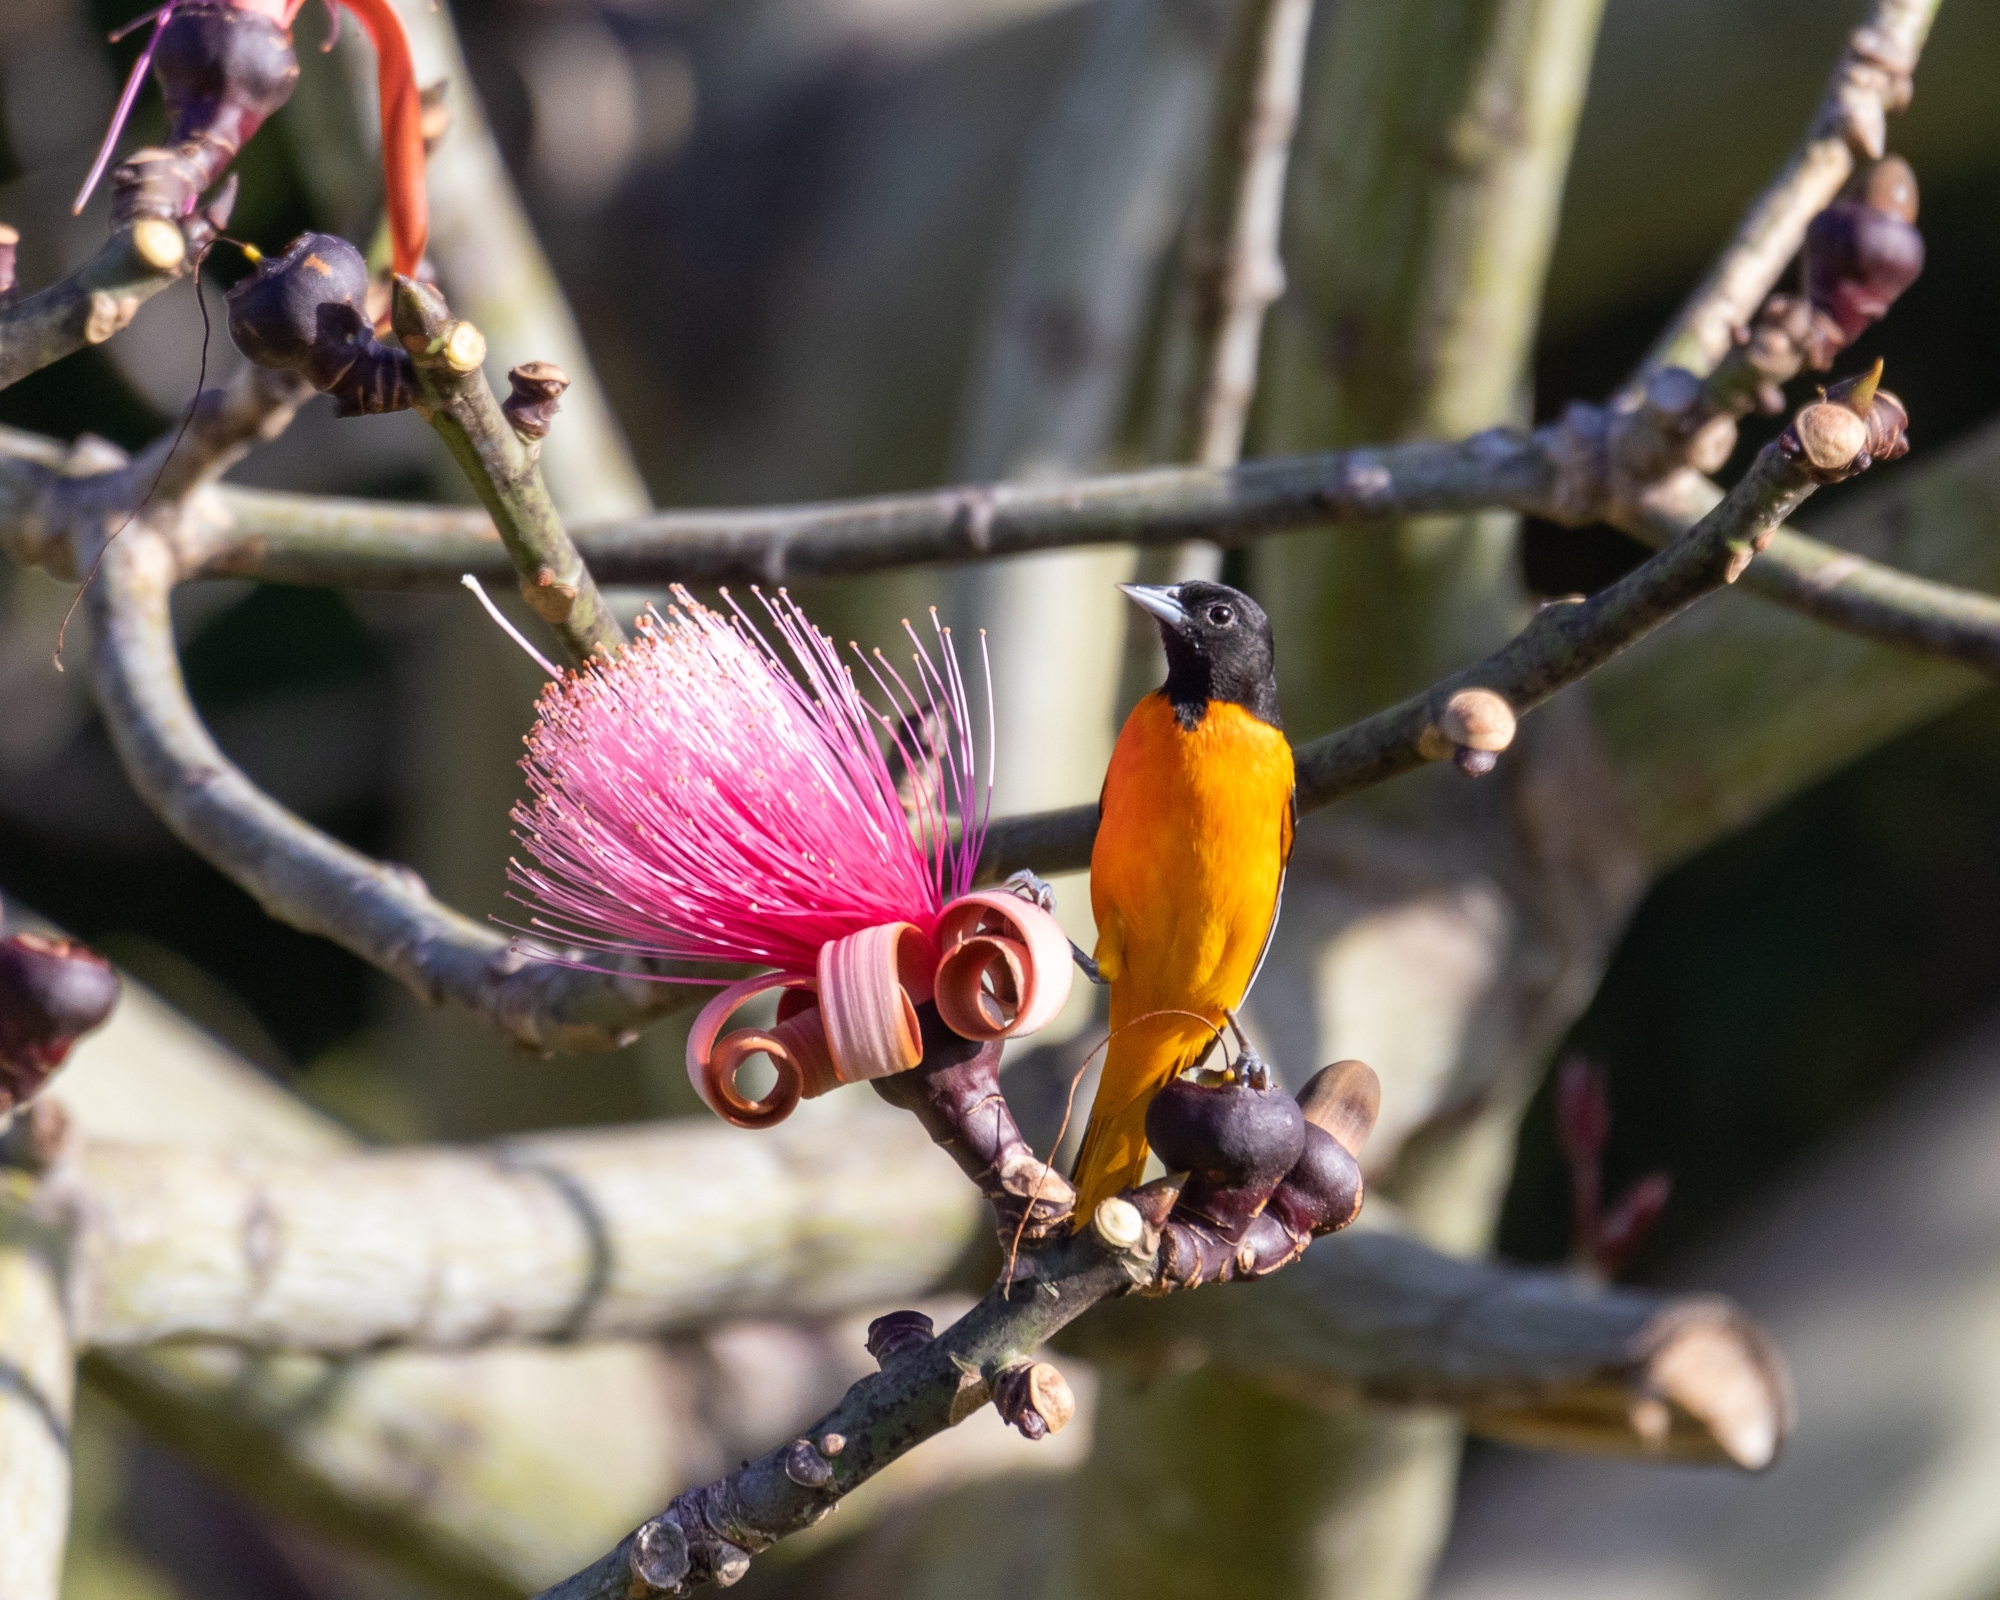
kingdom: Animalia
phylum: Chordata
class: Aves
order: Passeriformes
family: Icteridae
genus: Icterus
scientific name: Icterus galbula
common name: Baltimore oriole
